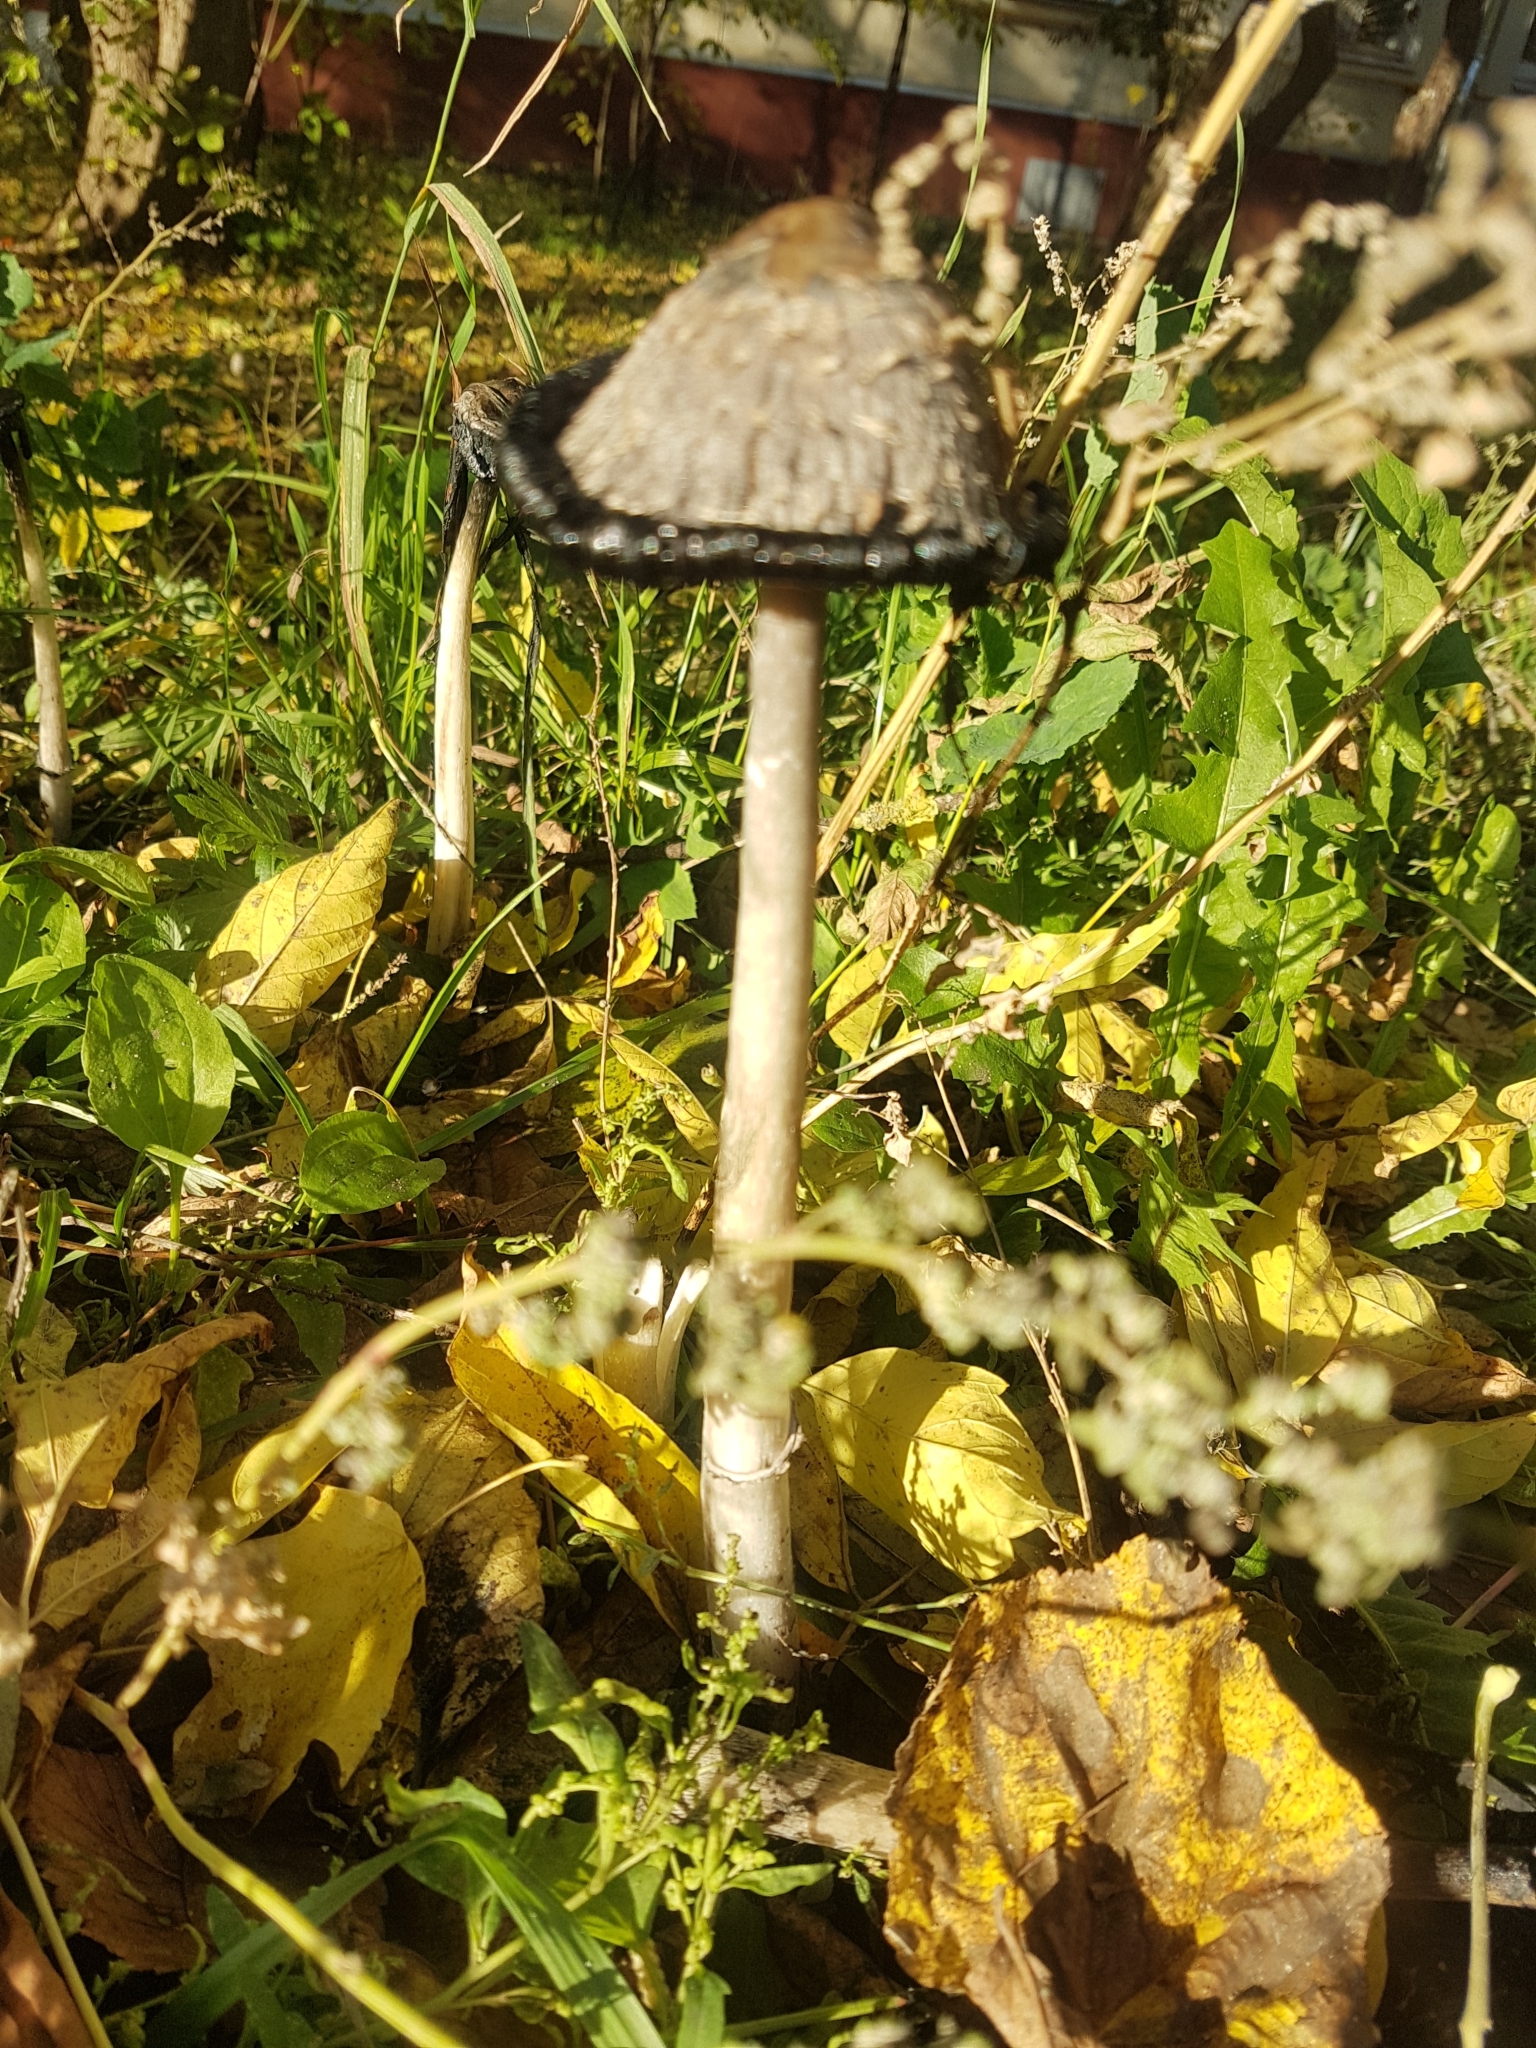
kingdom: Fungi
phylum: Basidiomycota
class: Agaricomycetes
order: Agaricales
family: Agaricaceae
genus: Coprinus
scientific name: Coprinus comatus
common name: Lawyer's wig
